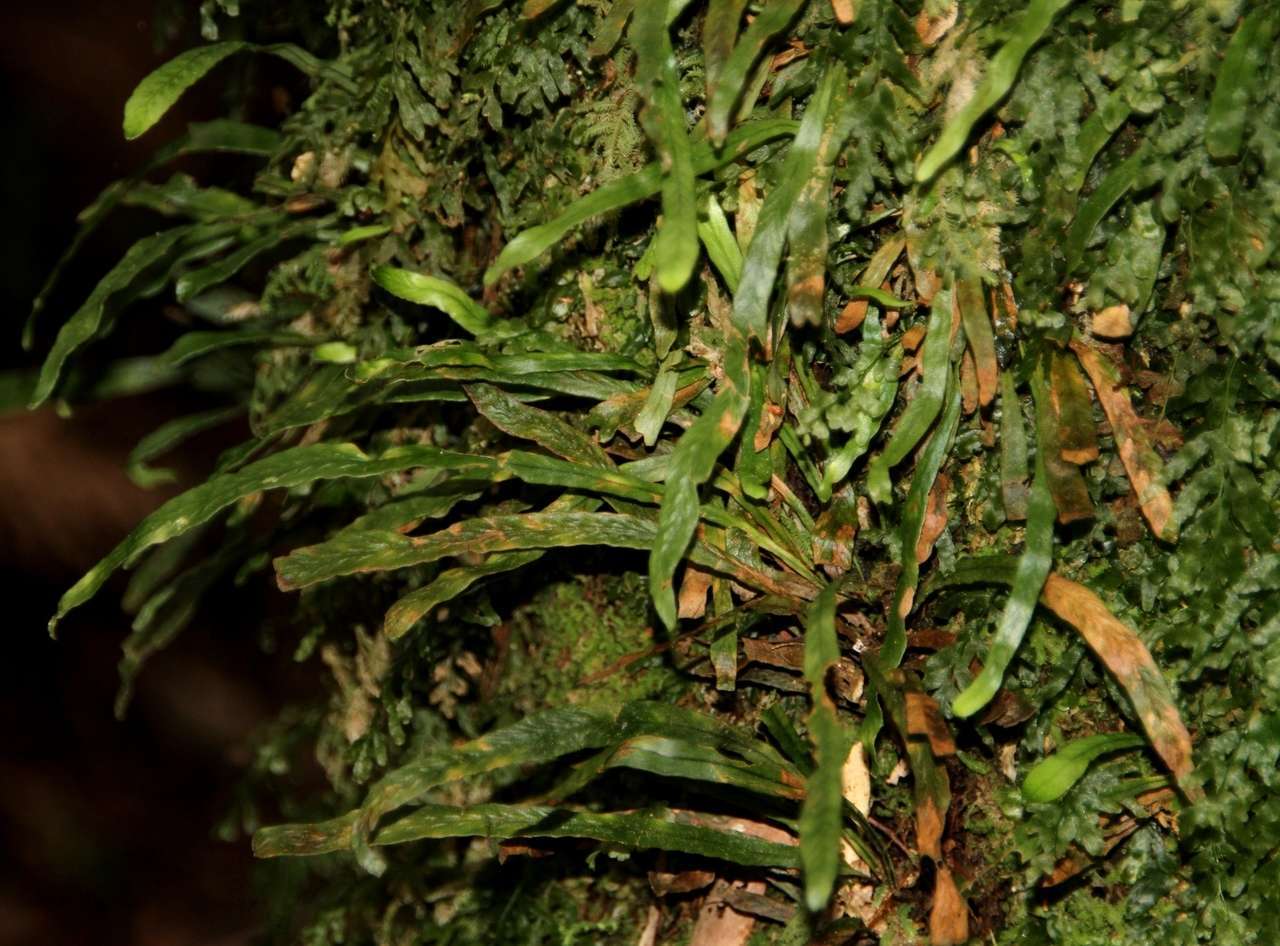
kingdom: Plantae
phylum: Tracheophyta
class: Polypodiopsida
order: Polypodiales
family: Polypodiaceae
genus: Notogrammitis
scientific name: Notogrammitis billardierei
